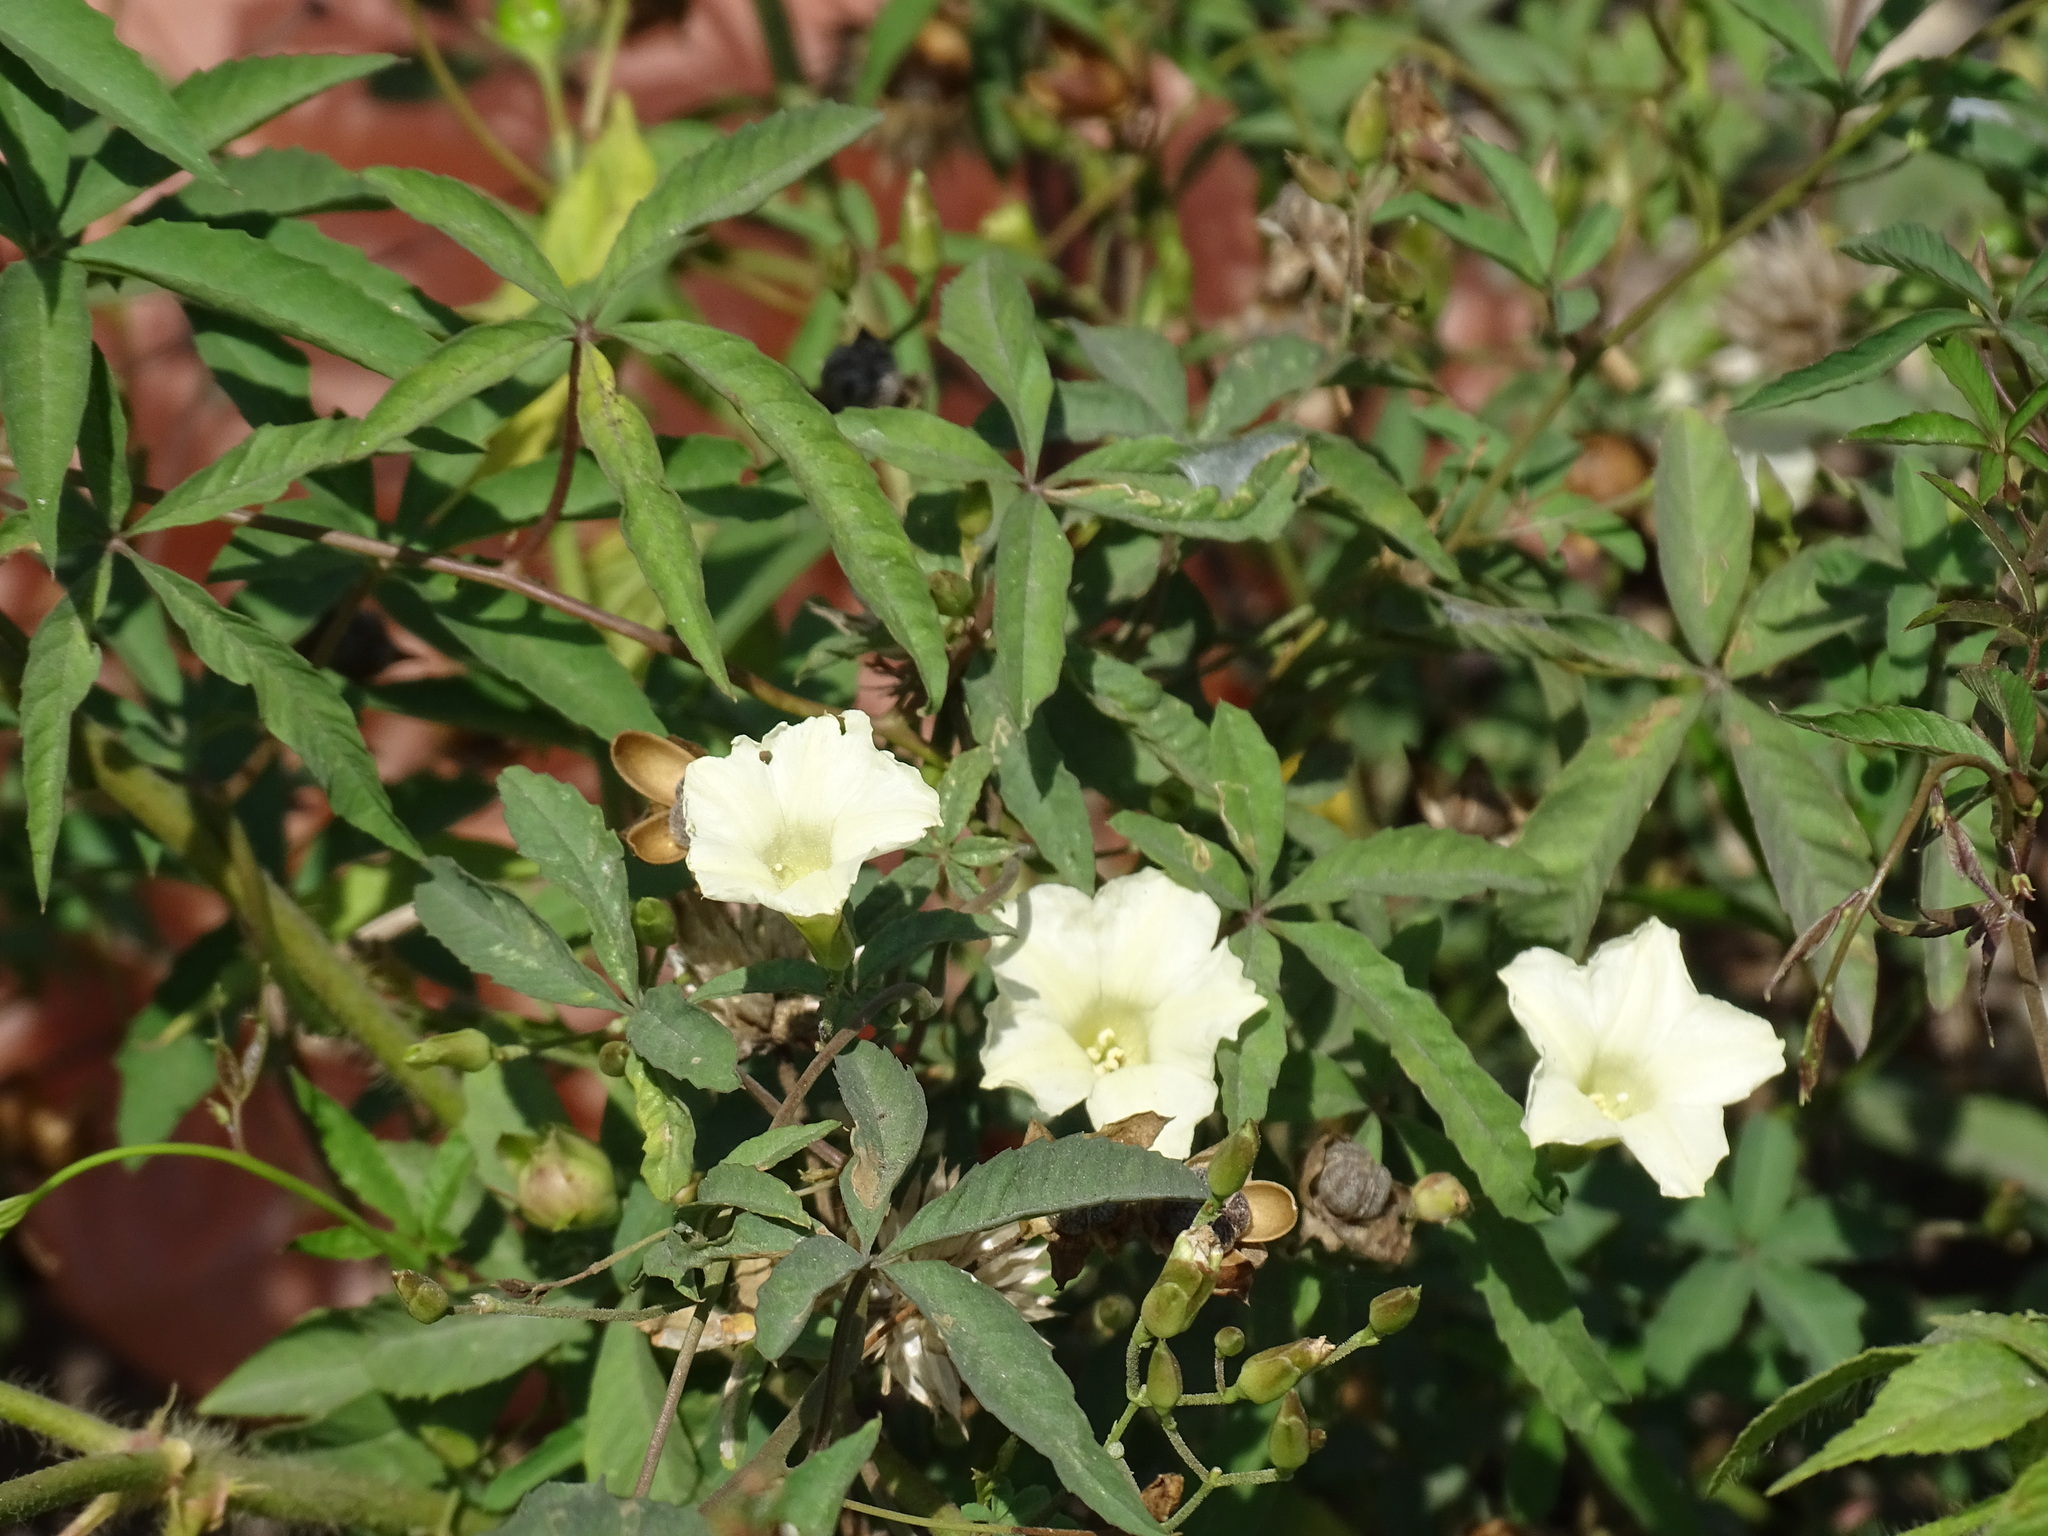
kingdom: Plantae
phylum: Tracheophyta
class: Magnoliopsida
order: Solanales
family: Convolvulaceae
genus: Distimake
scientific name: Distimake quinquefolius
